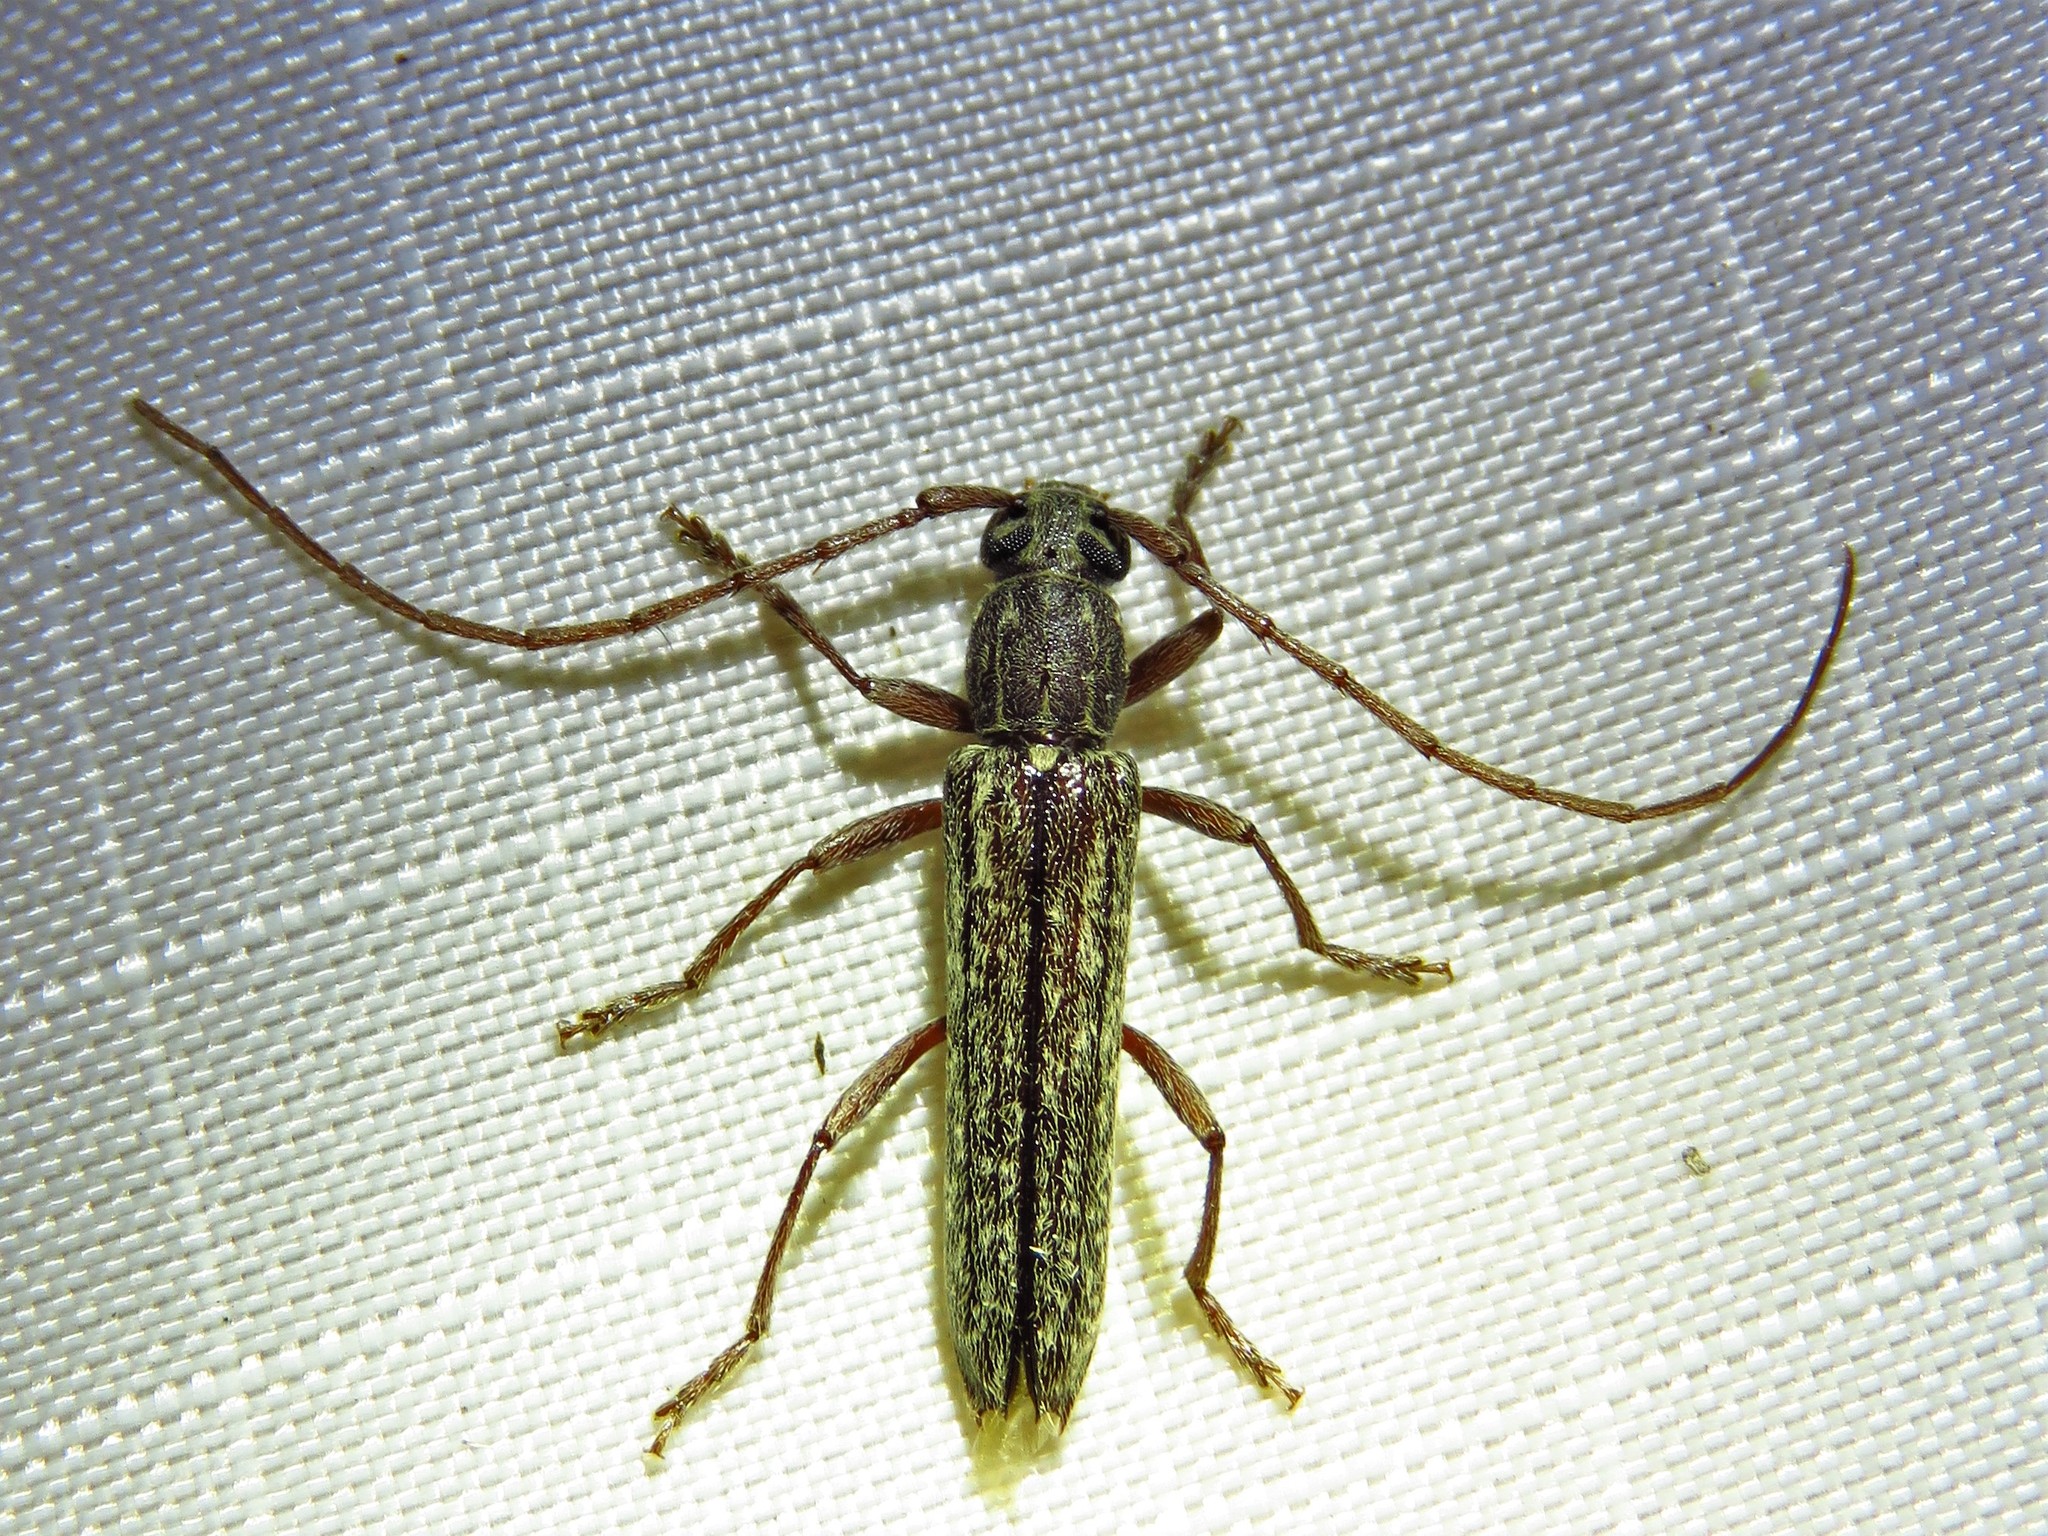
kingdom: Animalia
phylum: Arthropoda
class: Insecta
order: Coleoptera
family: Cerambycidae
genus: Anelaphus
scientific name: Anelaphus villosus
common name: Twig pruner
